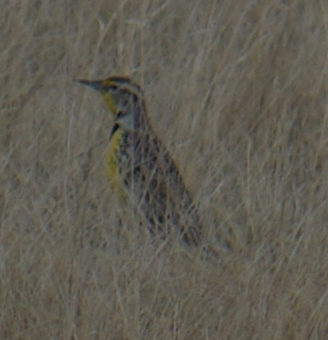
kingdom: Animalia
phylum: Chordata
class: Aves
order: Passeriformes
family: Icteridae
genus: Sturnella
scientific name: Sturnella neglecta
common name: Western meadowlark
